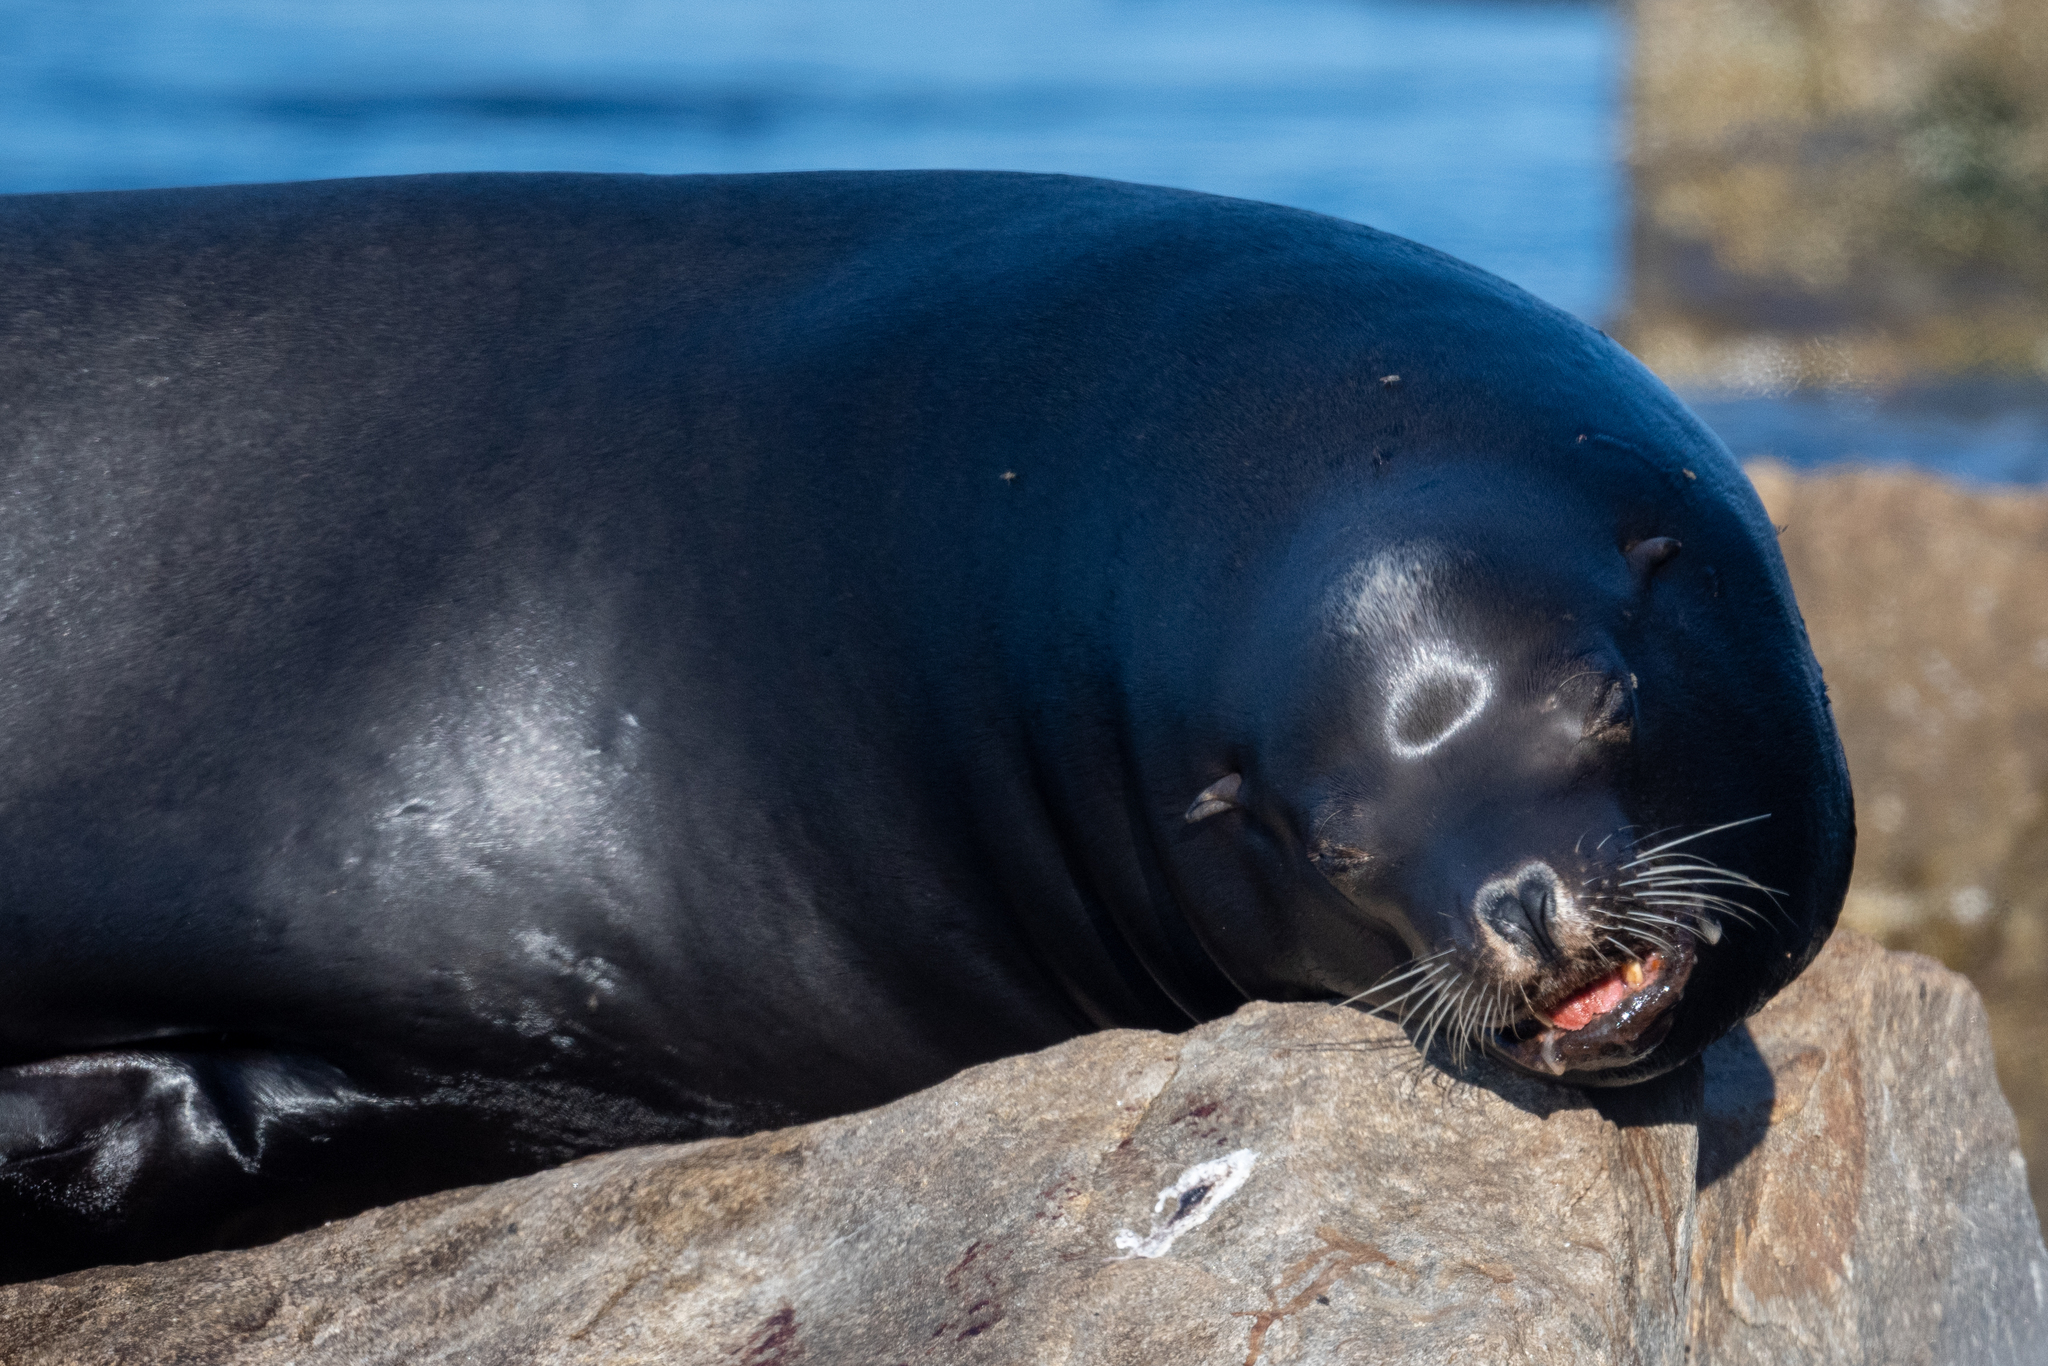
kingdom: Animalia
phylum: Chordata
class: Mammalia
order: Carnivora
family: Otariidae
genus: Zalophus
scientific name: Zalophus californianus
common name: California sea lion
